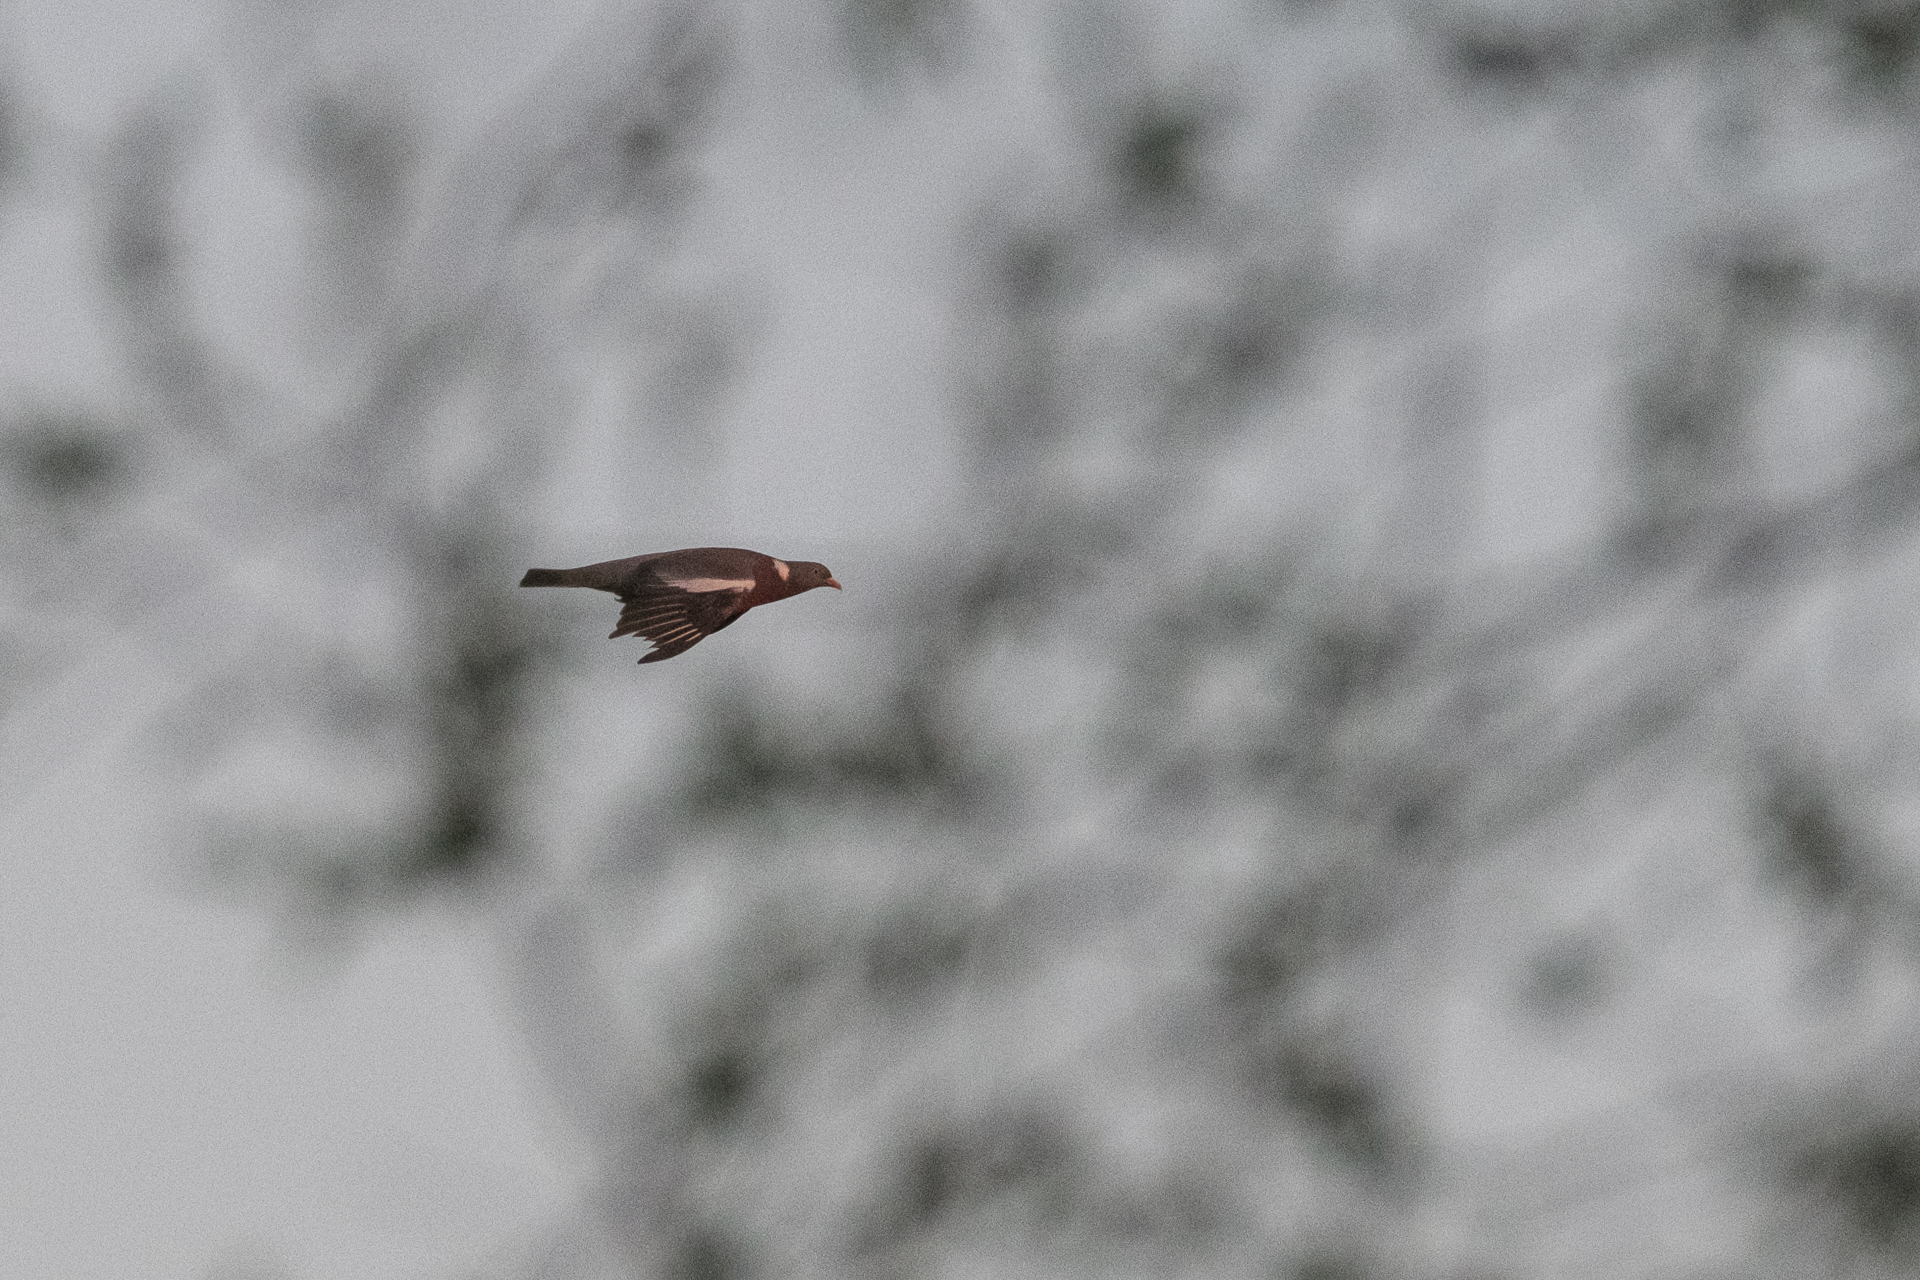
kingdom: Animalia
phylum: Chordata
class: Aves
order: Columbiformes
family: Columbidae
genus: Columba
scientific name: Columba palumbus
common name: Common wood pigeon
